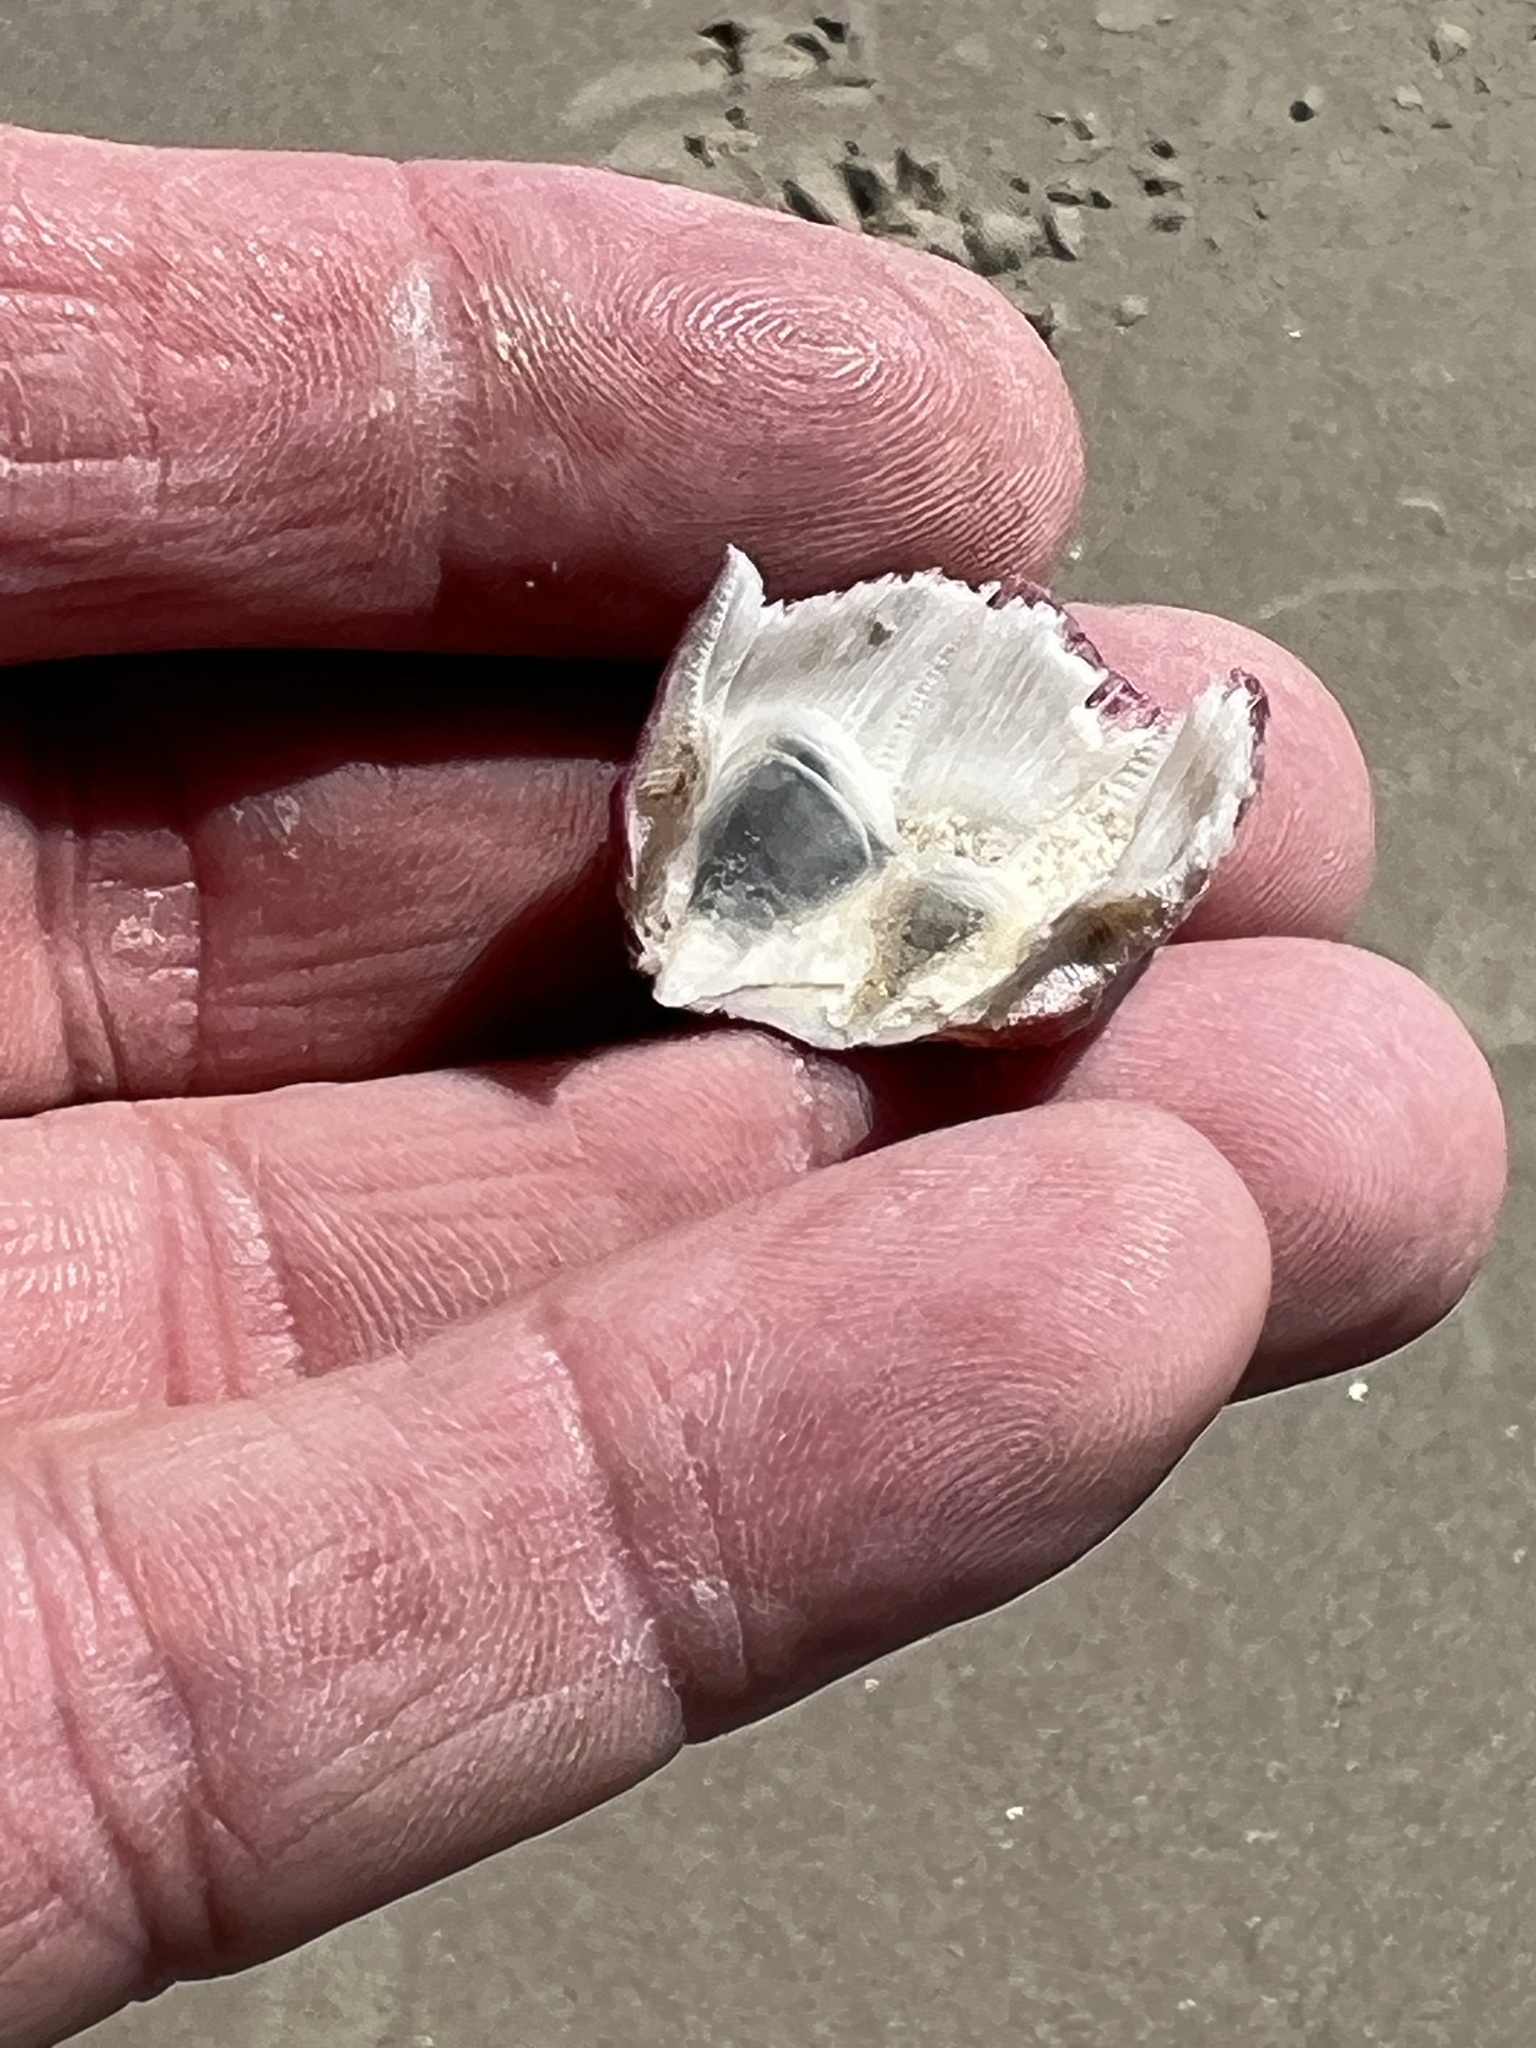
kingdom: Animalia
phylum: Arthropoda
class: Maxillopoda
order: Sessilia
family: Balanidae
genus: Megabalanus
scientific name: Megabalanus tintinnabulum
